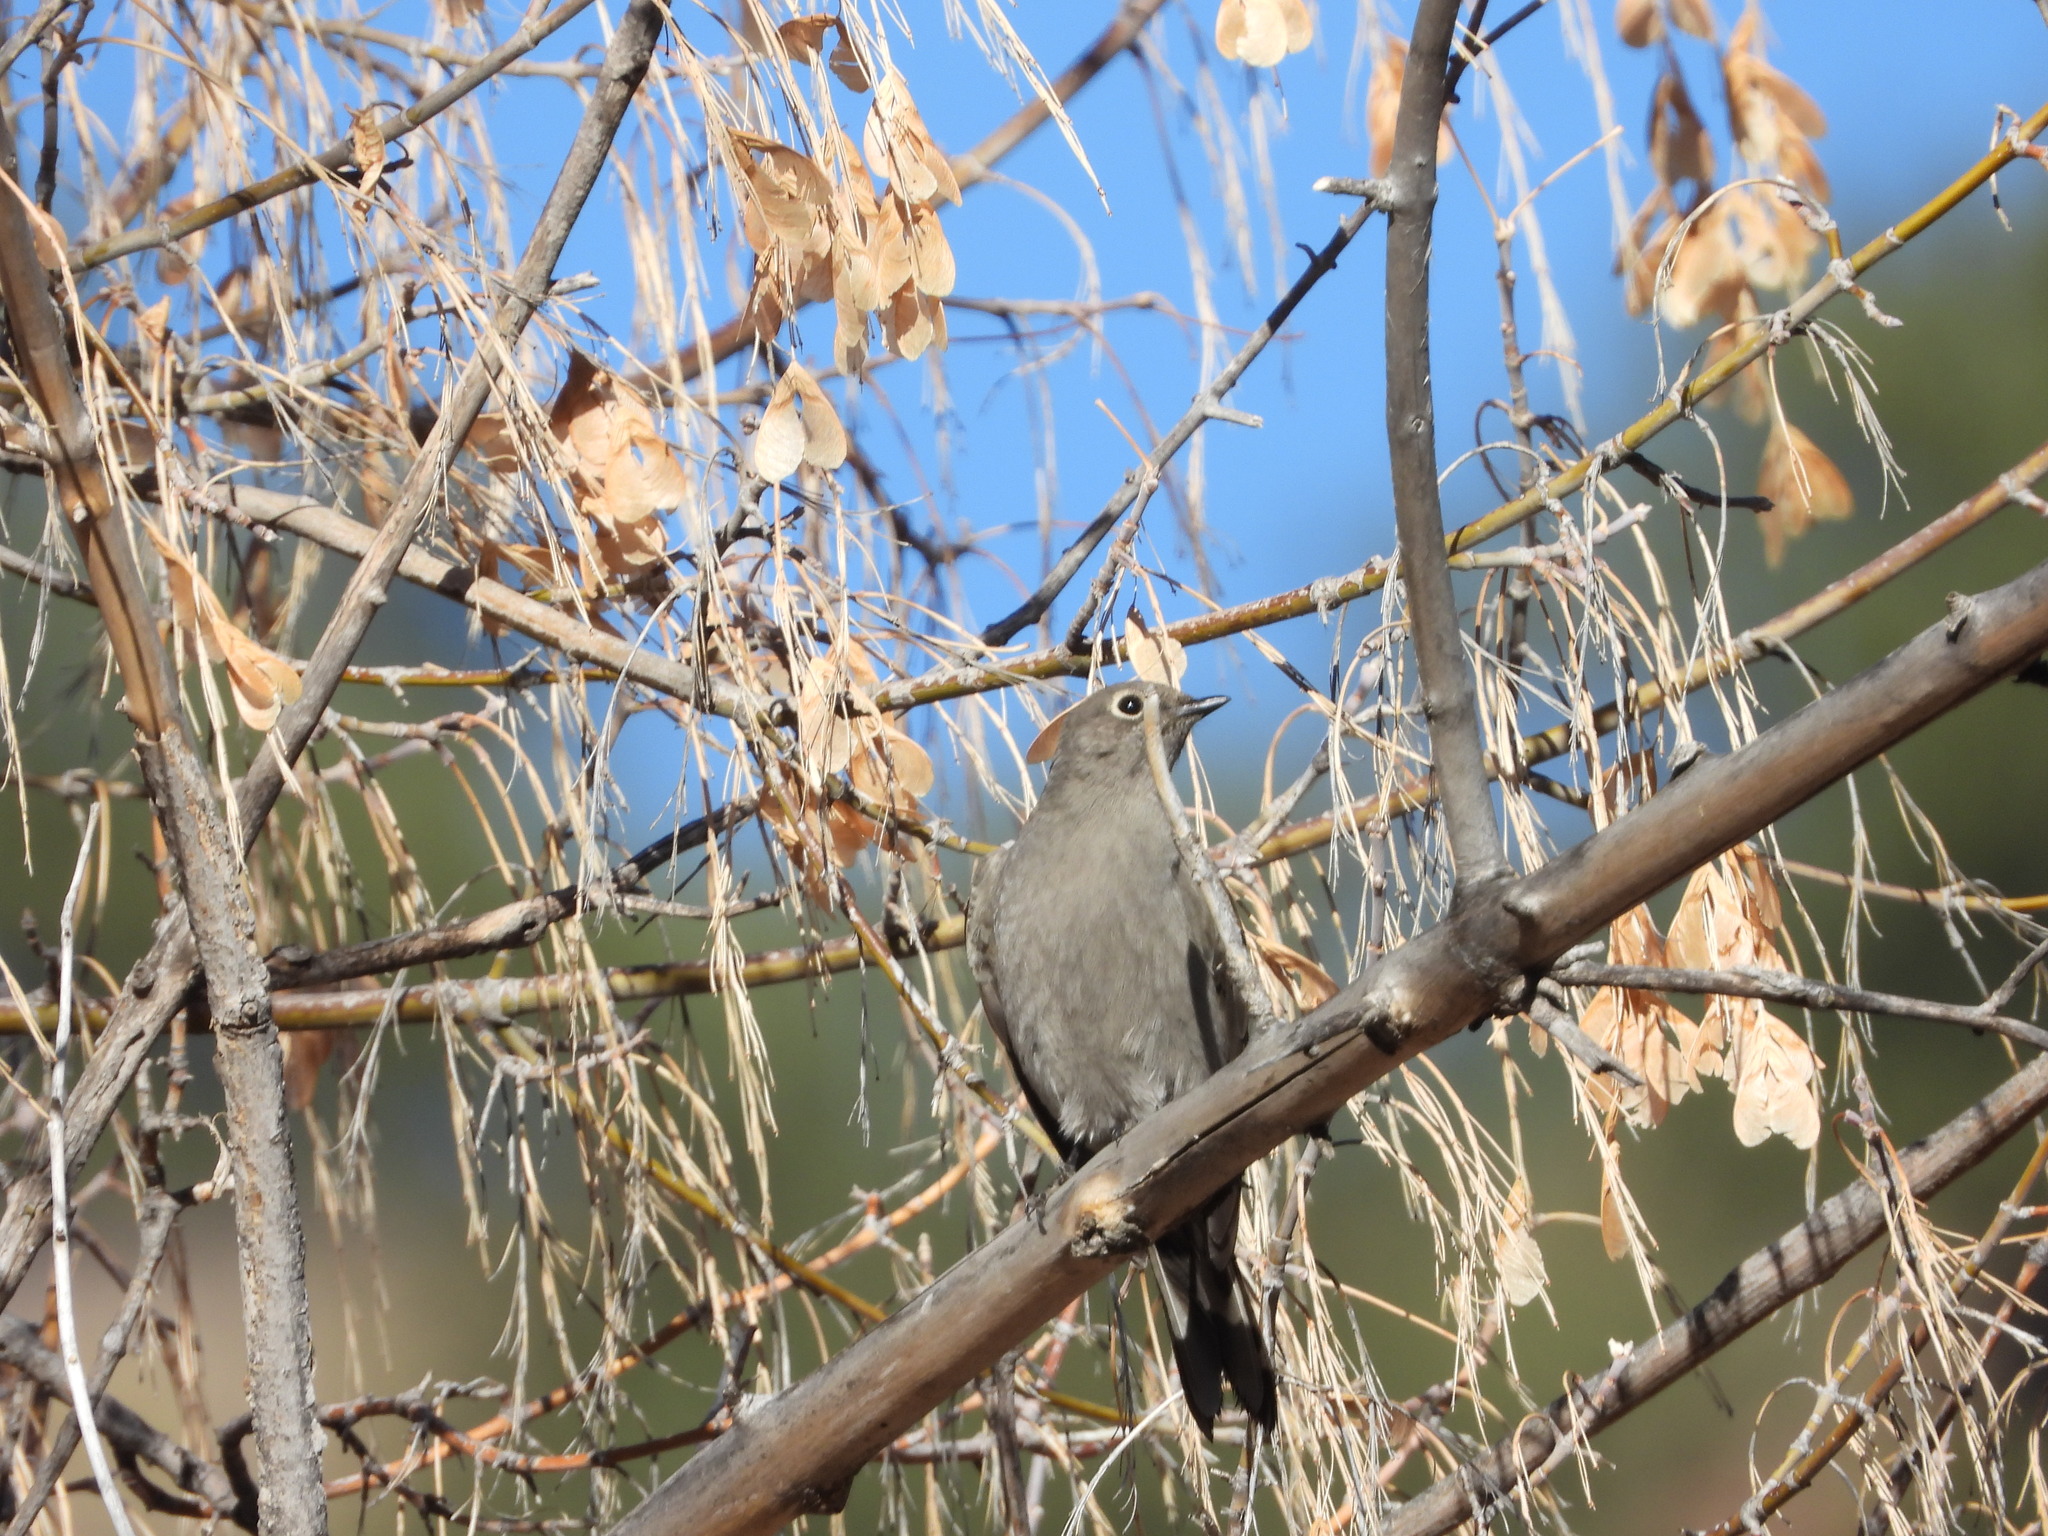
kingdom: Animalia
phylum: Chordata
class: Aves
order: Passeriformes
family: Turdidae
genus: Myadestes
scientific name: Myadestes townsendi
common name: Townsend's solitaire
